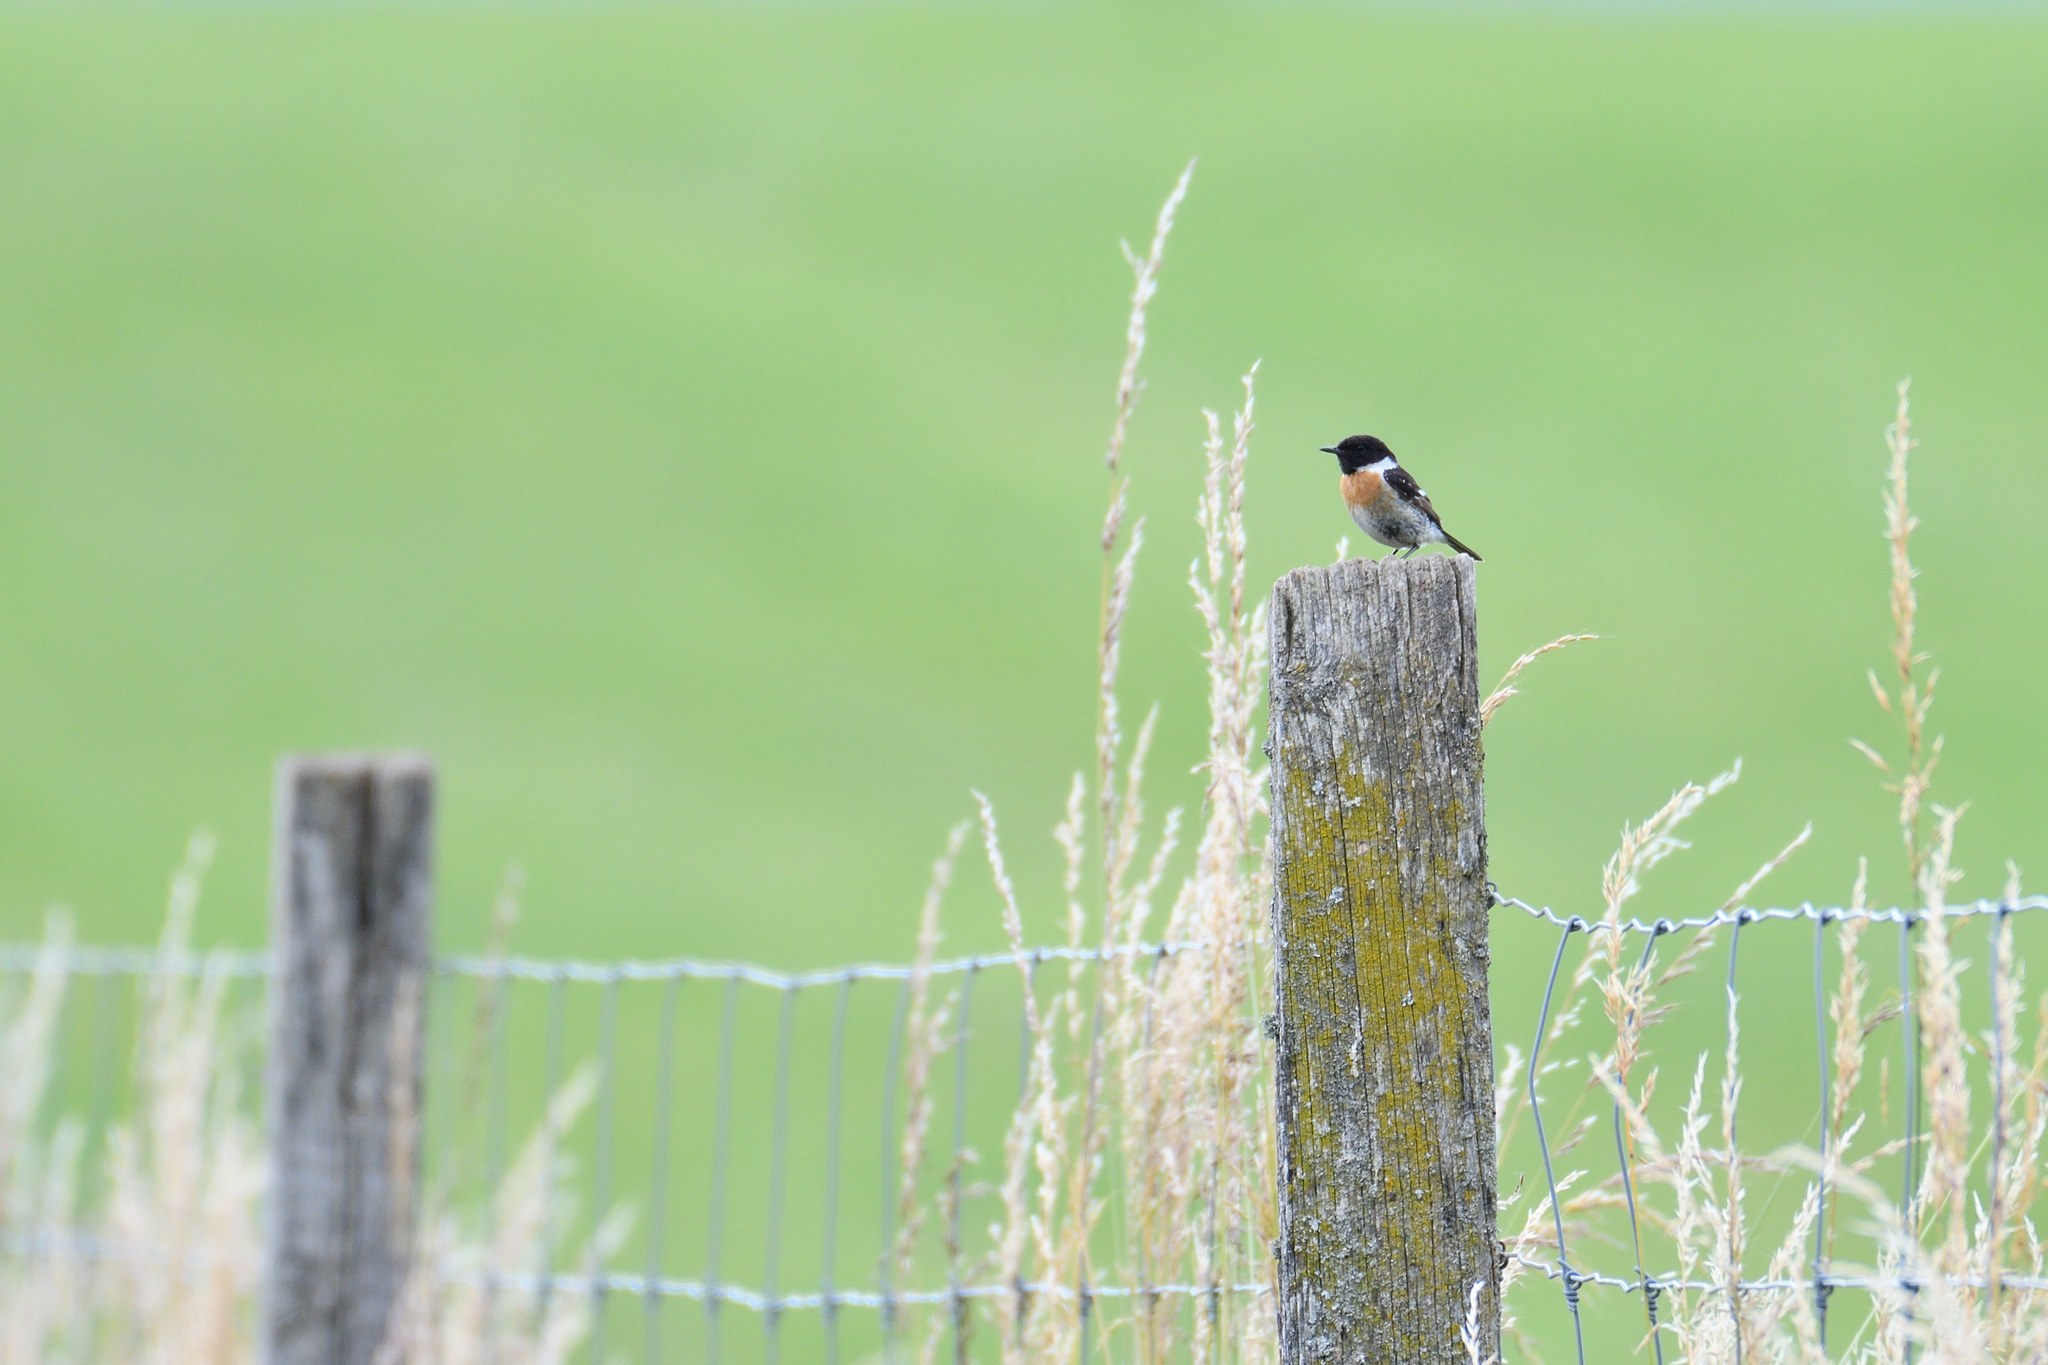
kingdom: Animalia
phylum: Chordata
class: Aves
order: Passeriformes
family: Muscicapidae
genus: Saxicola
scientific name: Saxicola rubicola
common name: European stonechat
